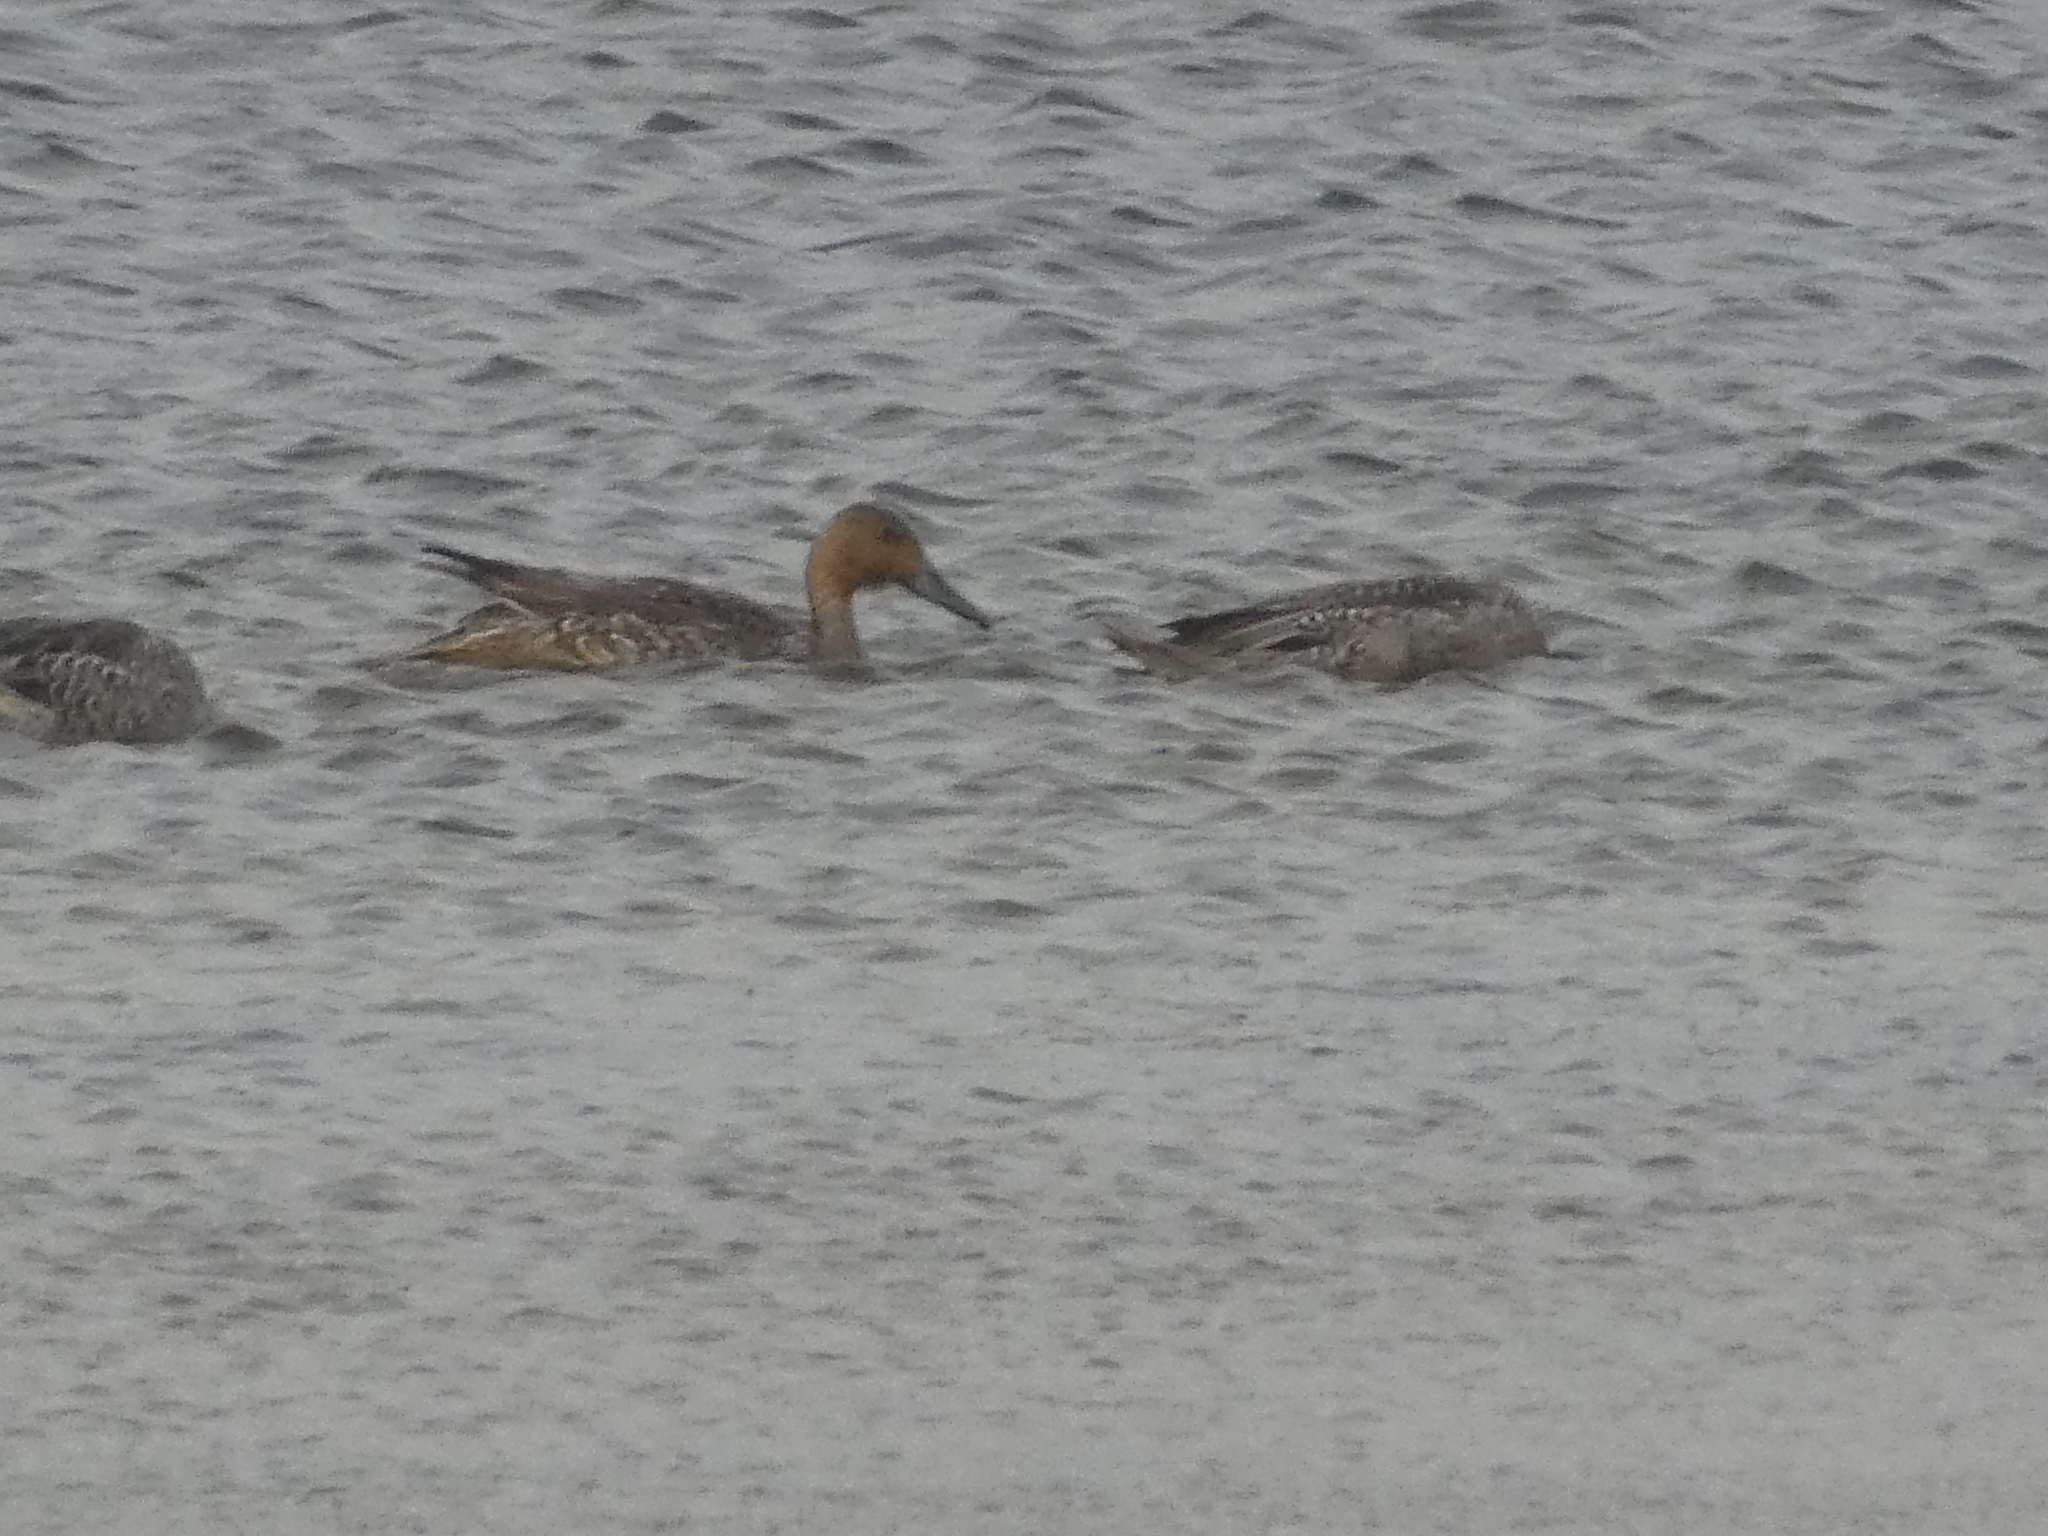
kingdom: Animalia
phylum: Chordata
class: Aves
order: Anseriformes
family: Anatidae
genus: Anas
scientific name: Anas acuta
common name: Northern pintail
